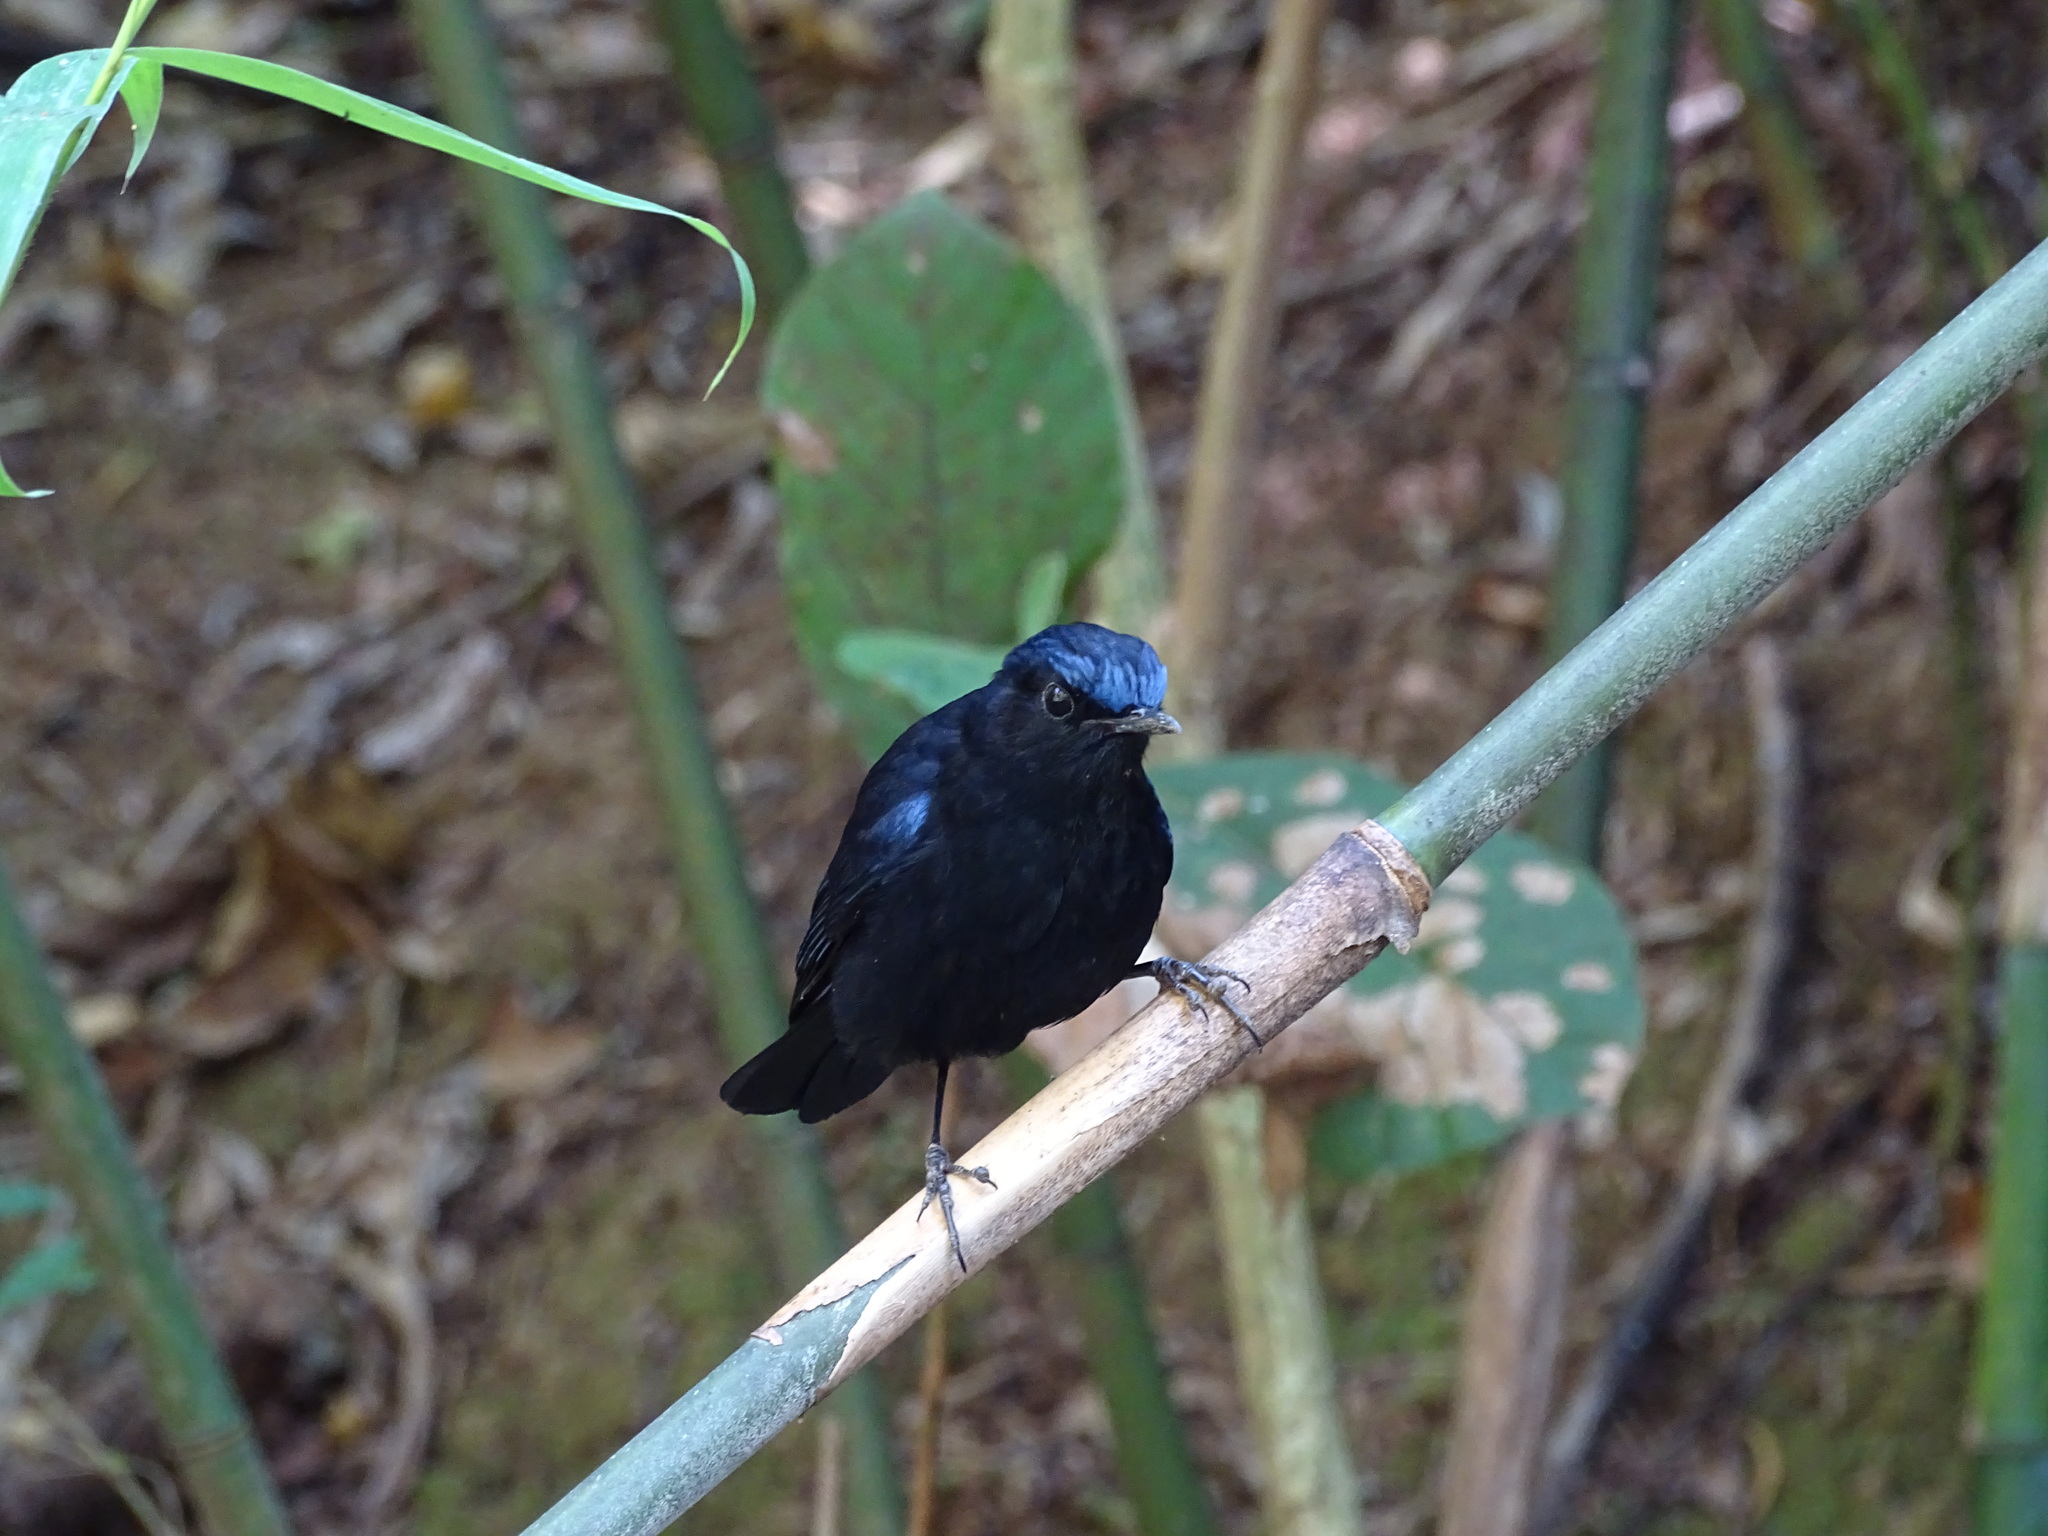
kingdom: Animalia
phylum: Chordata
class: Aves
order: Passeriformes
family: Muscicapidae
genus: Myiomela
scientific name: Myiomela leucura
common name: White-tailed robin
